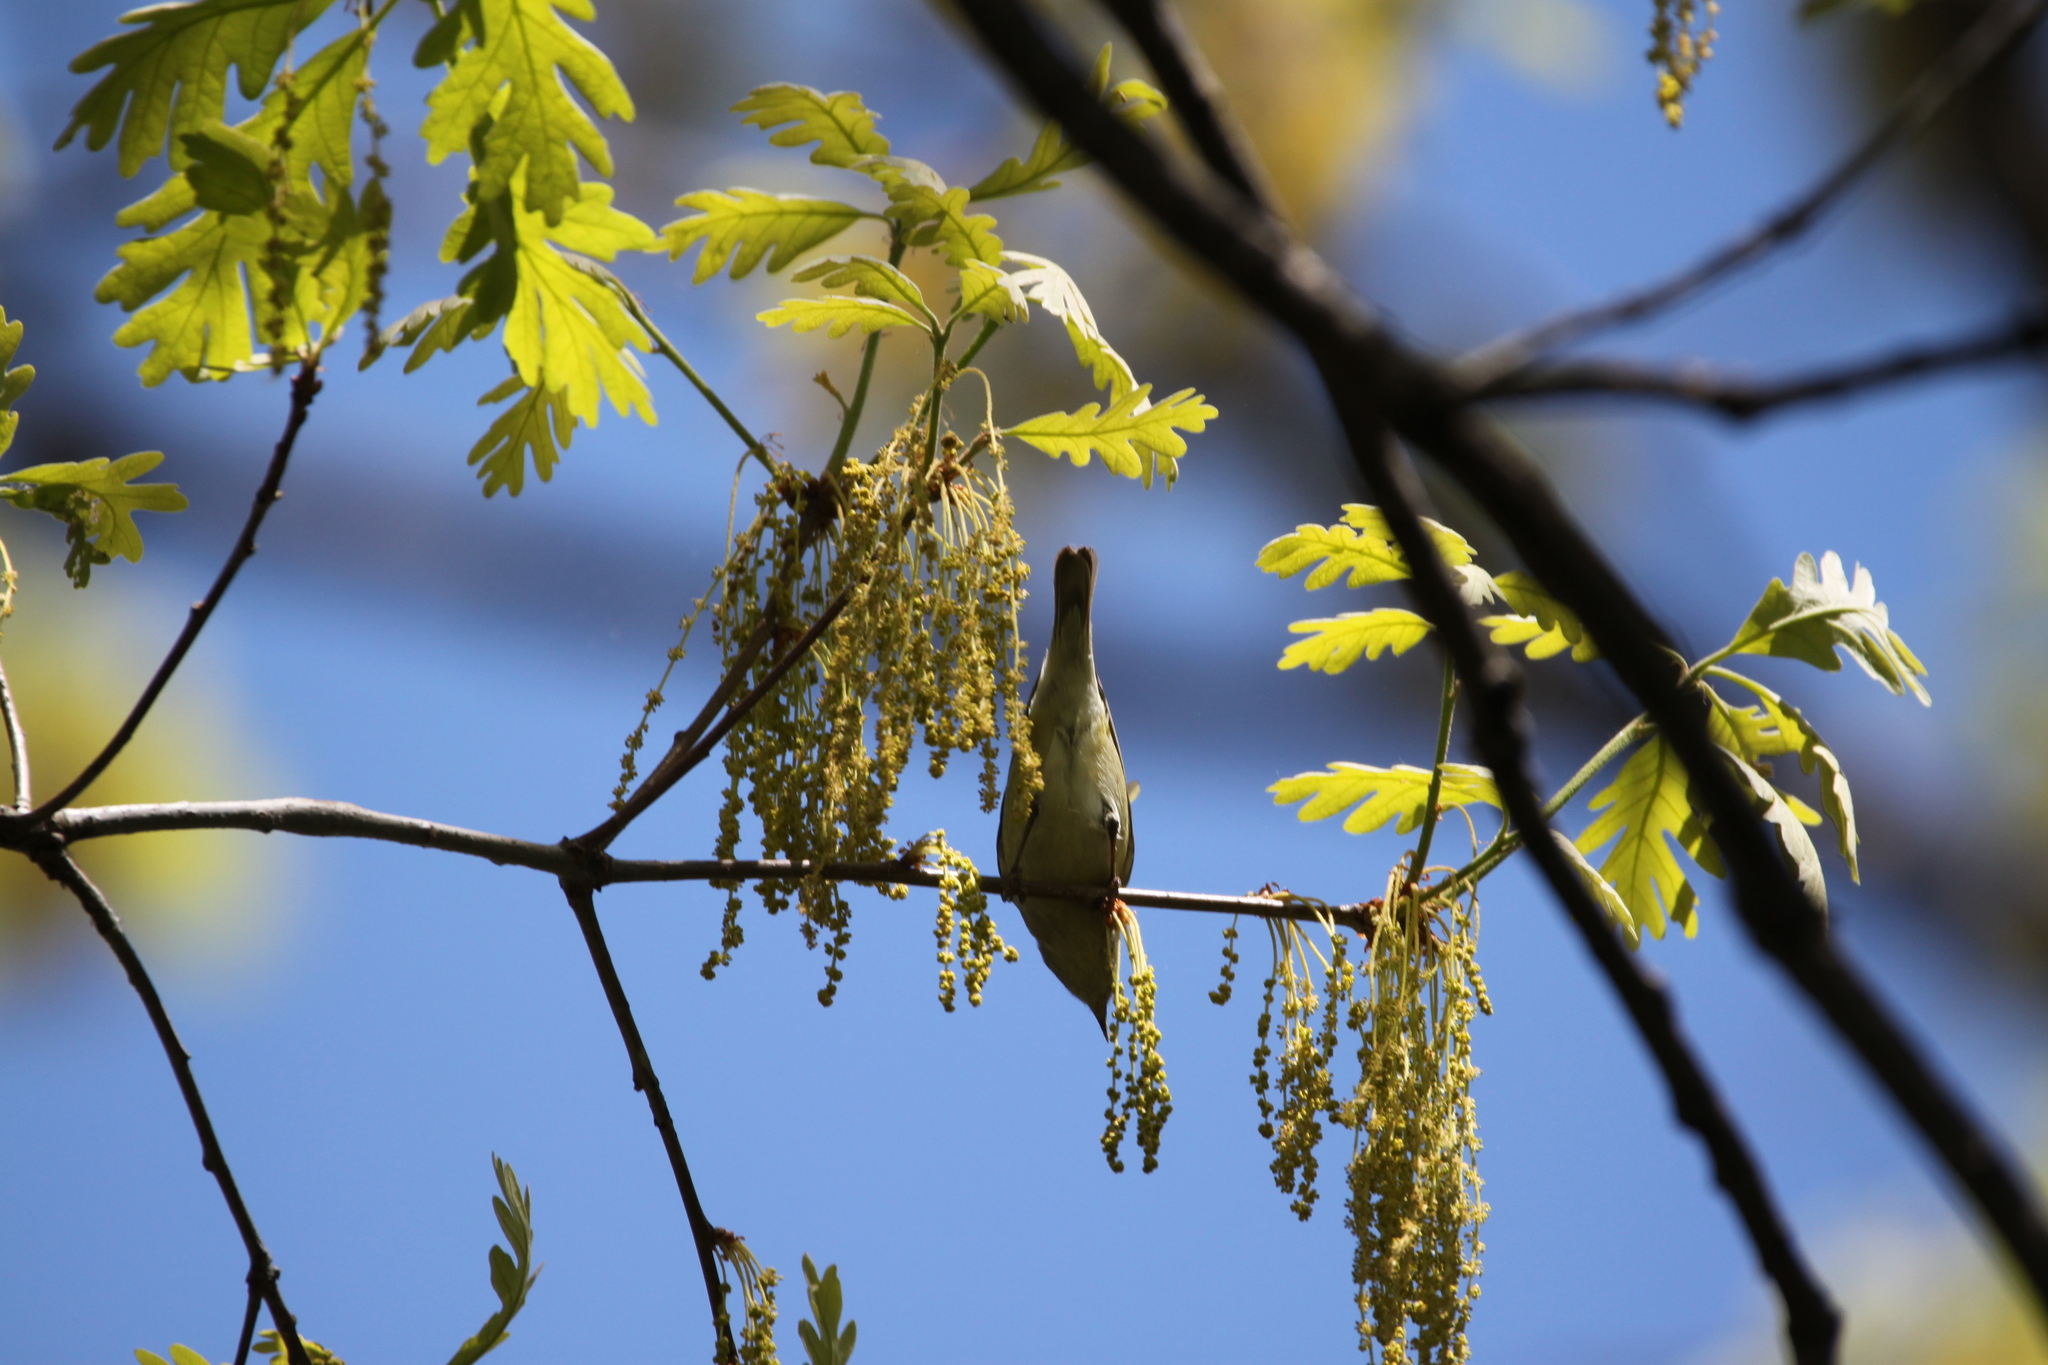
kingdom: Animalia
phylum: Chordata
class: Aves
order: Passeriformes
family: Parulidae
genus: Leiothlypis
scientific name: Leiothlypis peregrina
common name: Tennessee warbler
